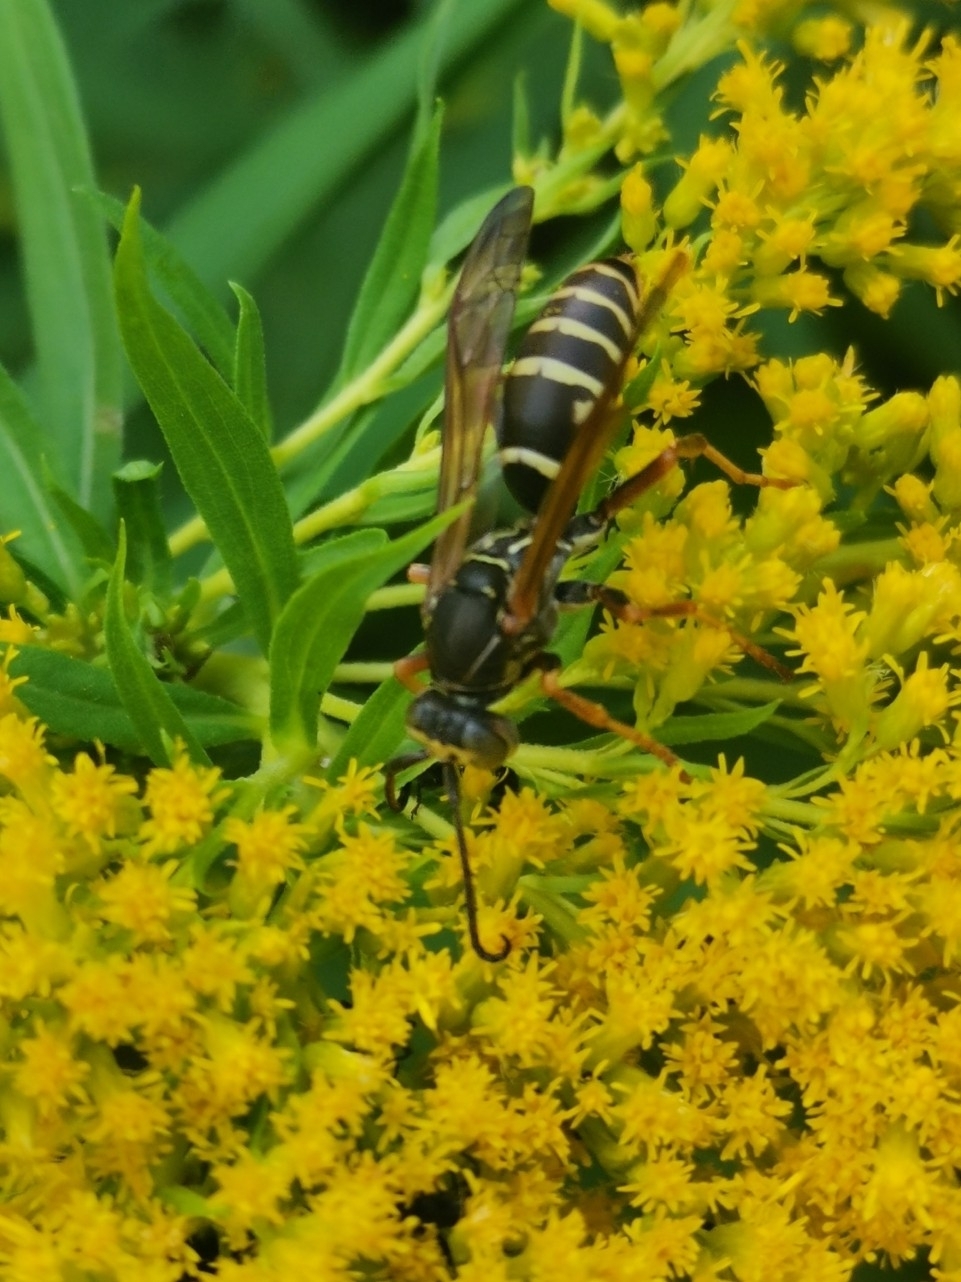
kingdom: Animalia
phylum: Arthropoda
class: Insecta
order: Hymenoptera
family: Eumenidae
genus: Polistes
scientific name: Polistes fuscatus
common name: Dark paper wasp
